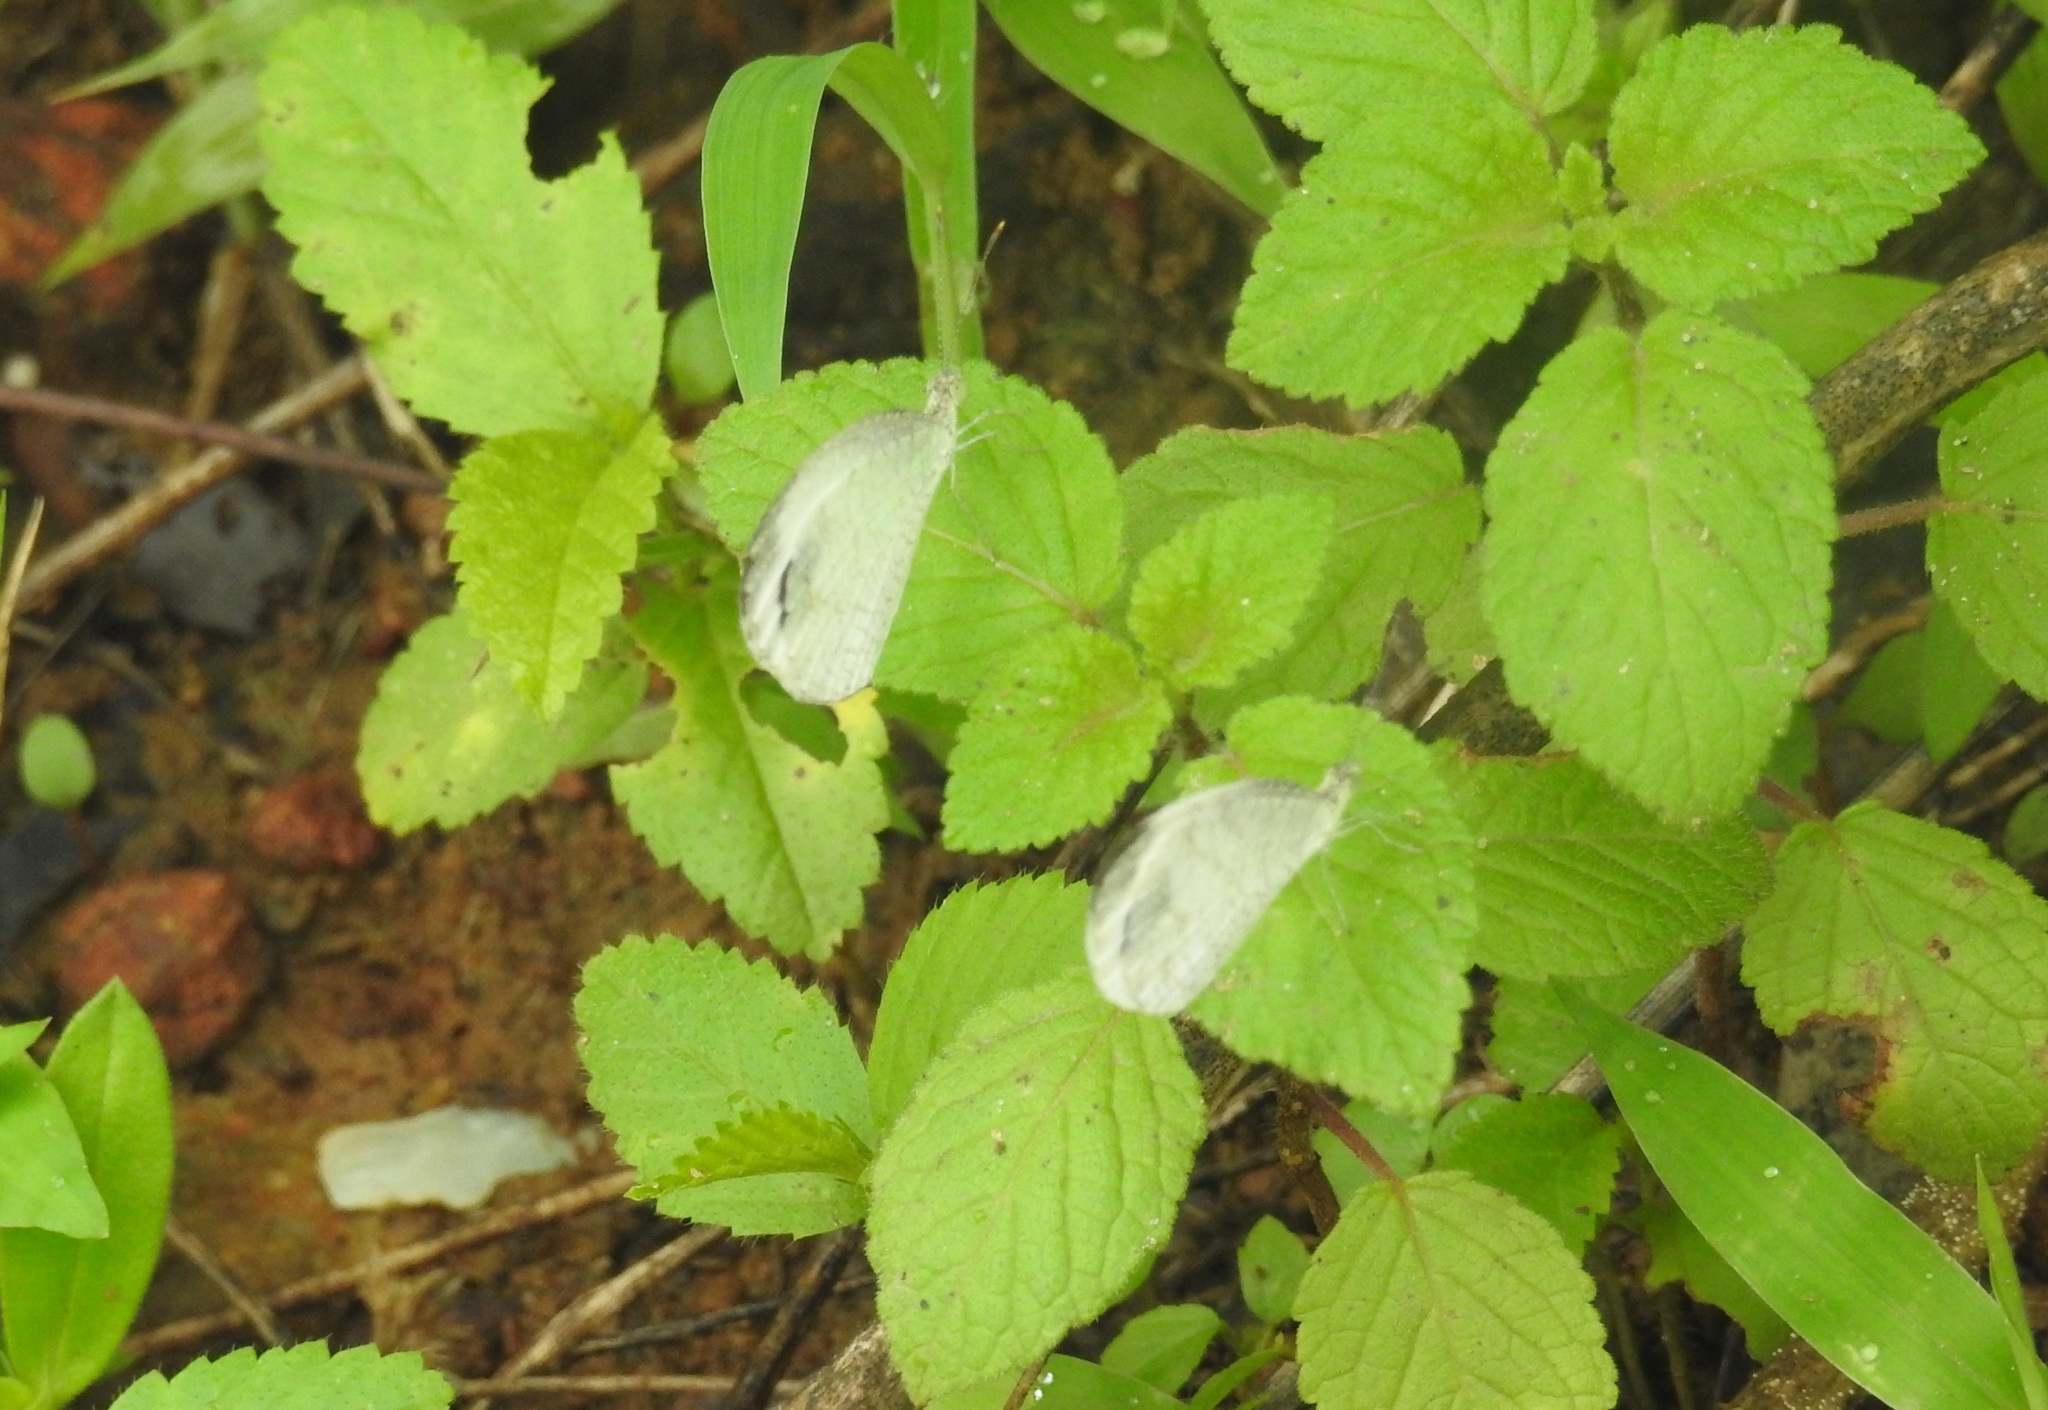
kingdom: Animalia
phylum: Arthropoda
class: Insecta
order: Lepidoptera
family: Pieridae
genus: Leptosia
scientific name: Leptosia nina
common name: Psyche
